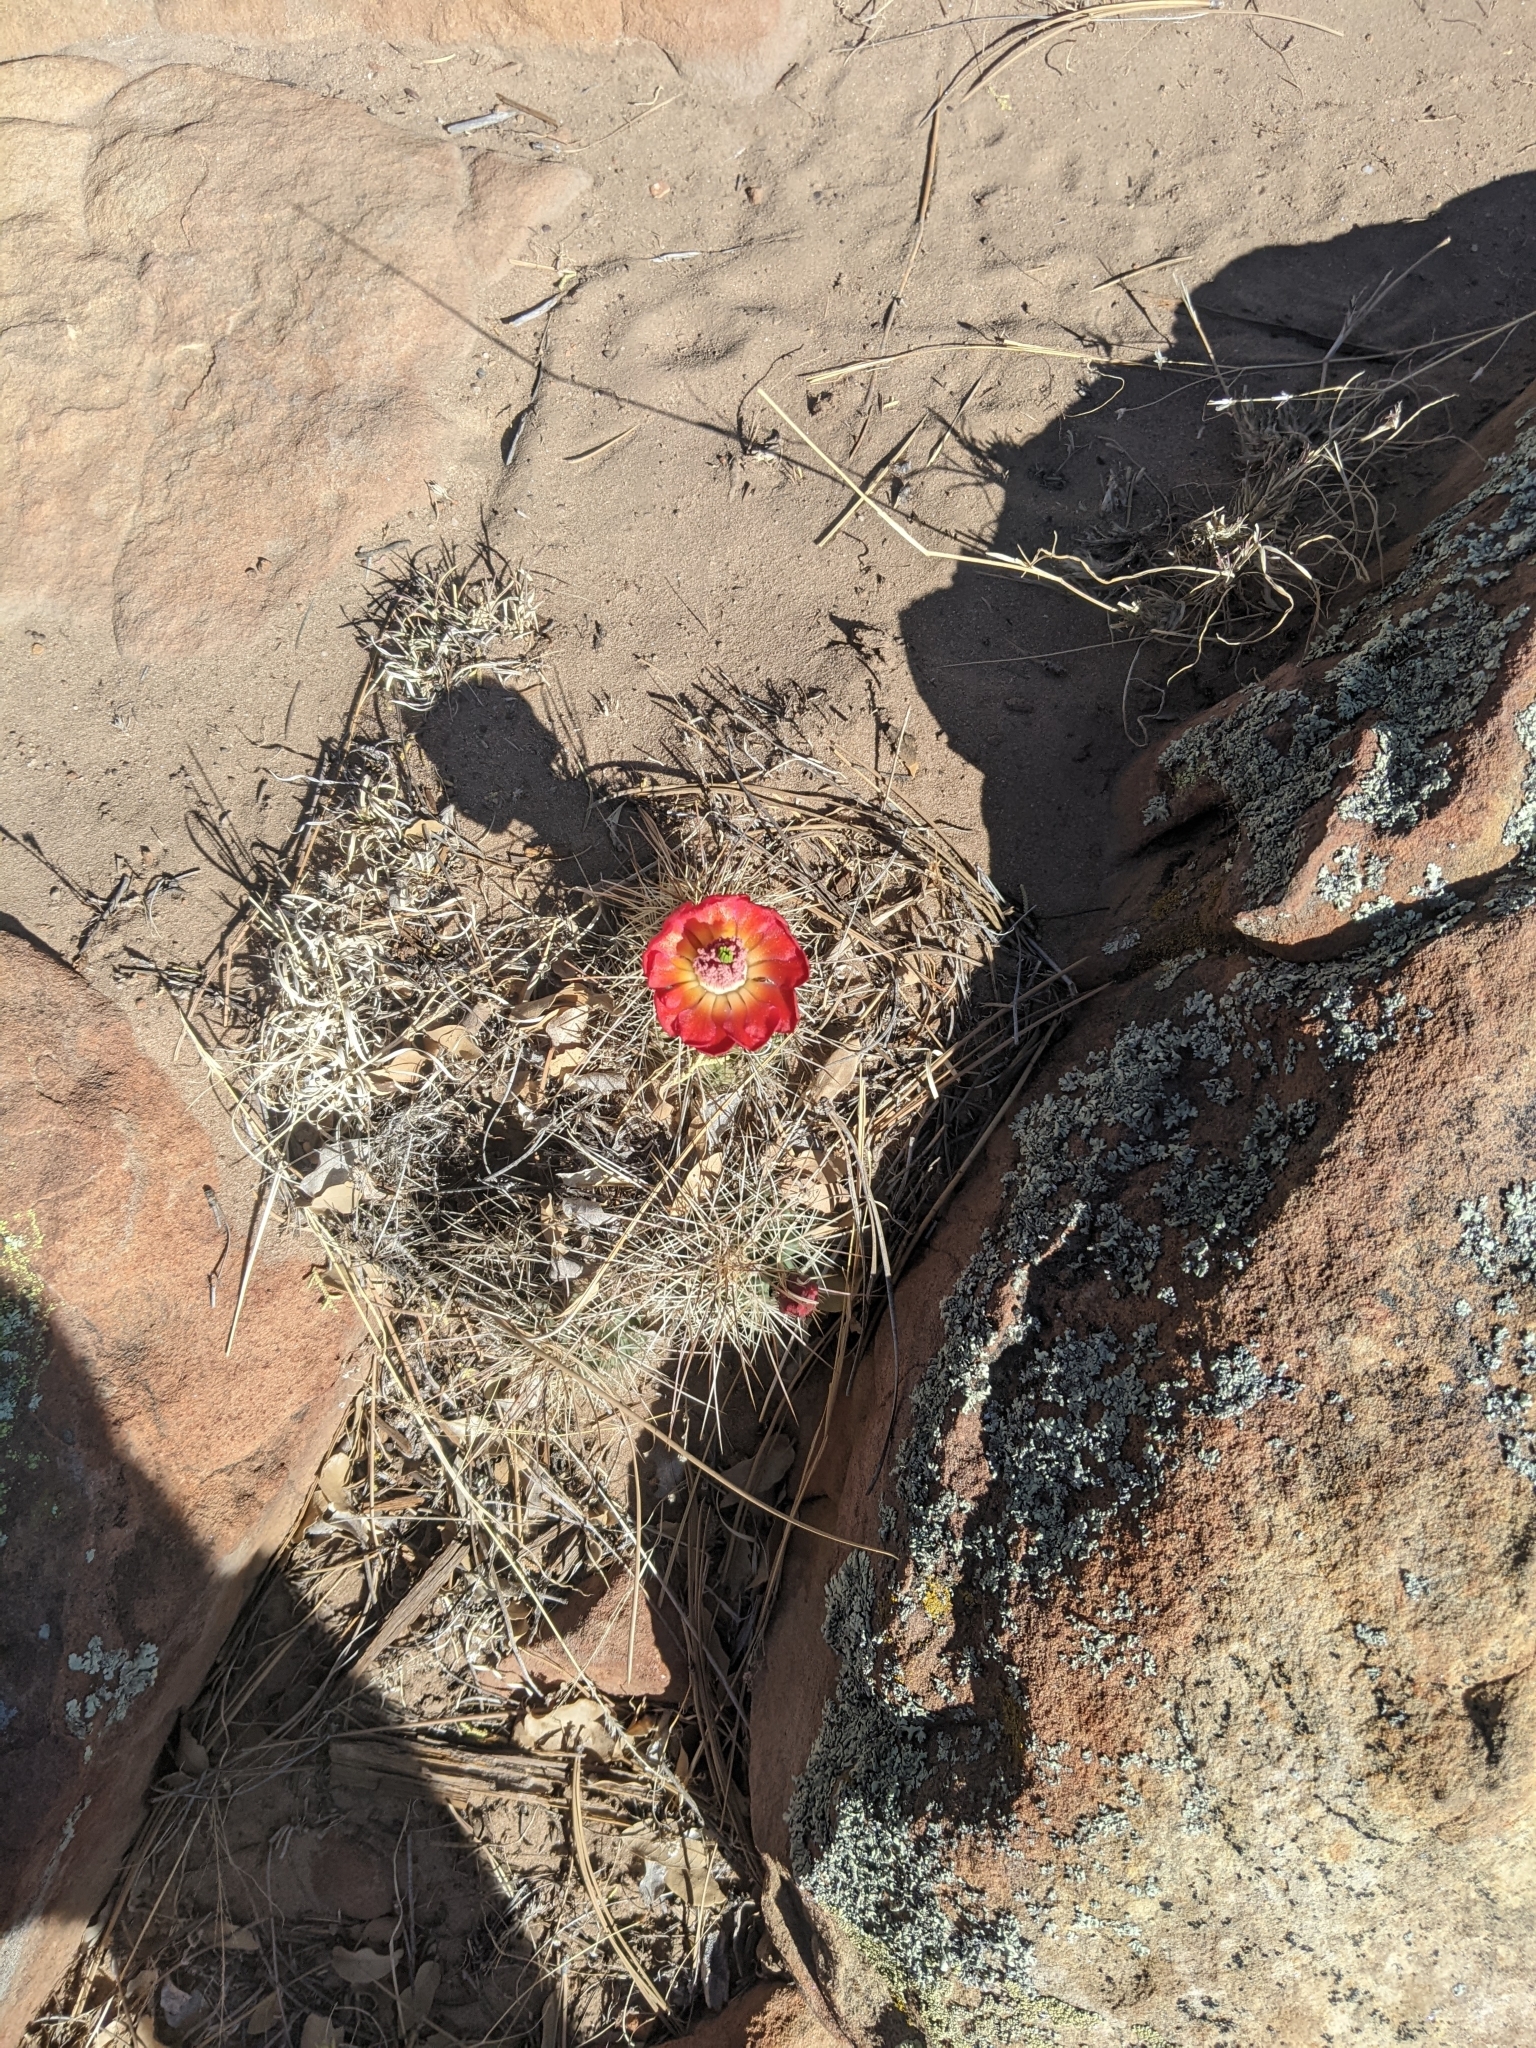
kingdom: Plantae
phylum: Tracheophyta
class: Magnoliopsida
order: Caryophyllales
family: Cactaceae
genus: Echinocereus
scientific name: Echinocereus coccineus
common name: Scarlet hedgehog cactus
